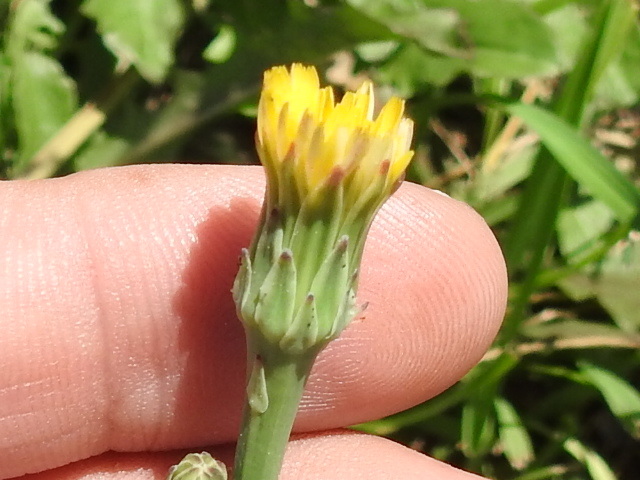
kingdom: Plantae
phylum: Tracheophyta
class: Magnoliopsida
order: Asterales
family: Asteraceae
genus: Hypochaeris
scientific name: Hypochaeris glabra
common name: Smooth catsear
